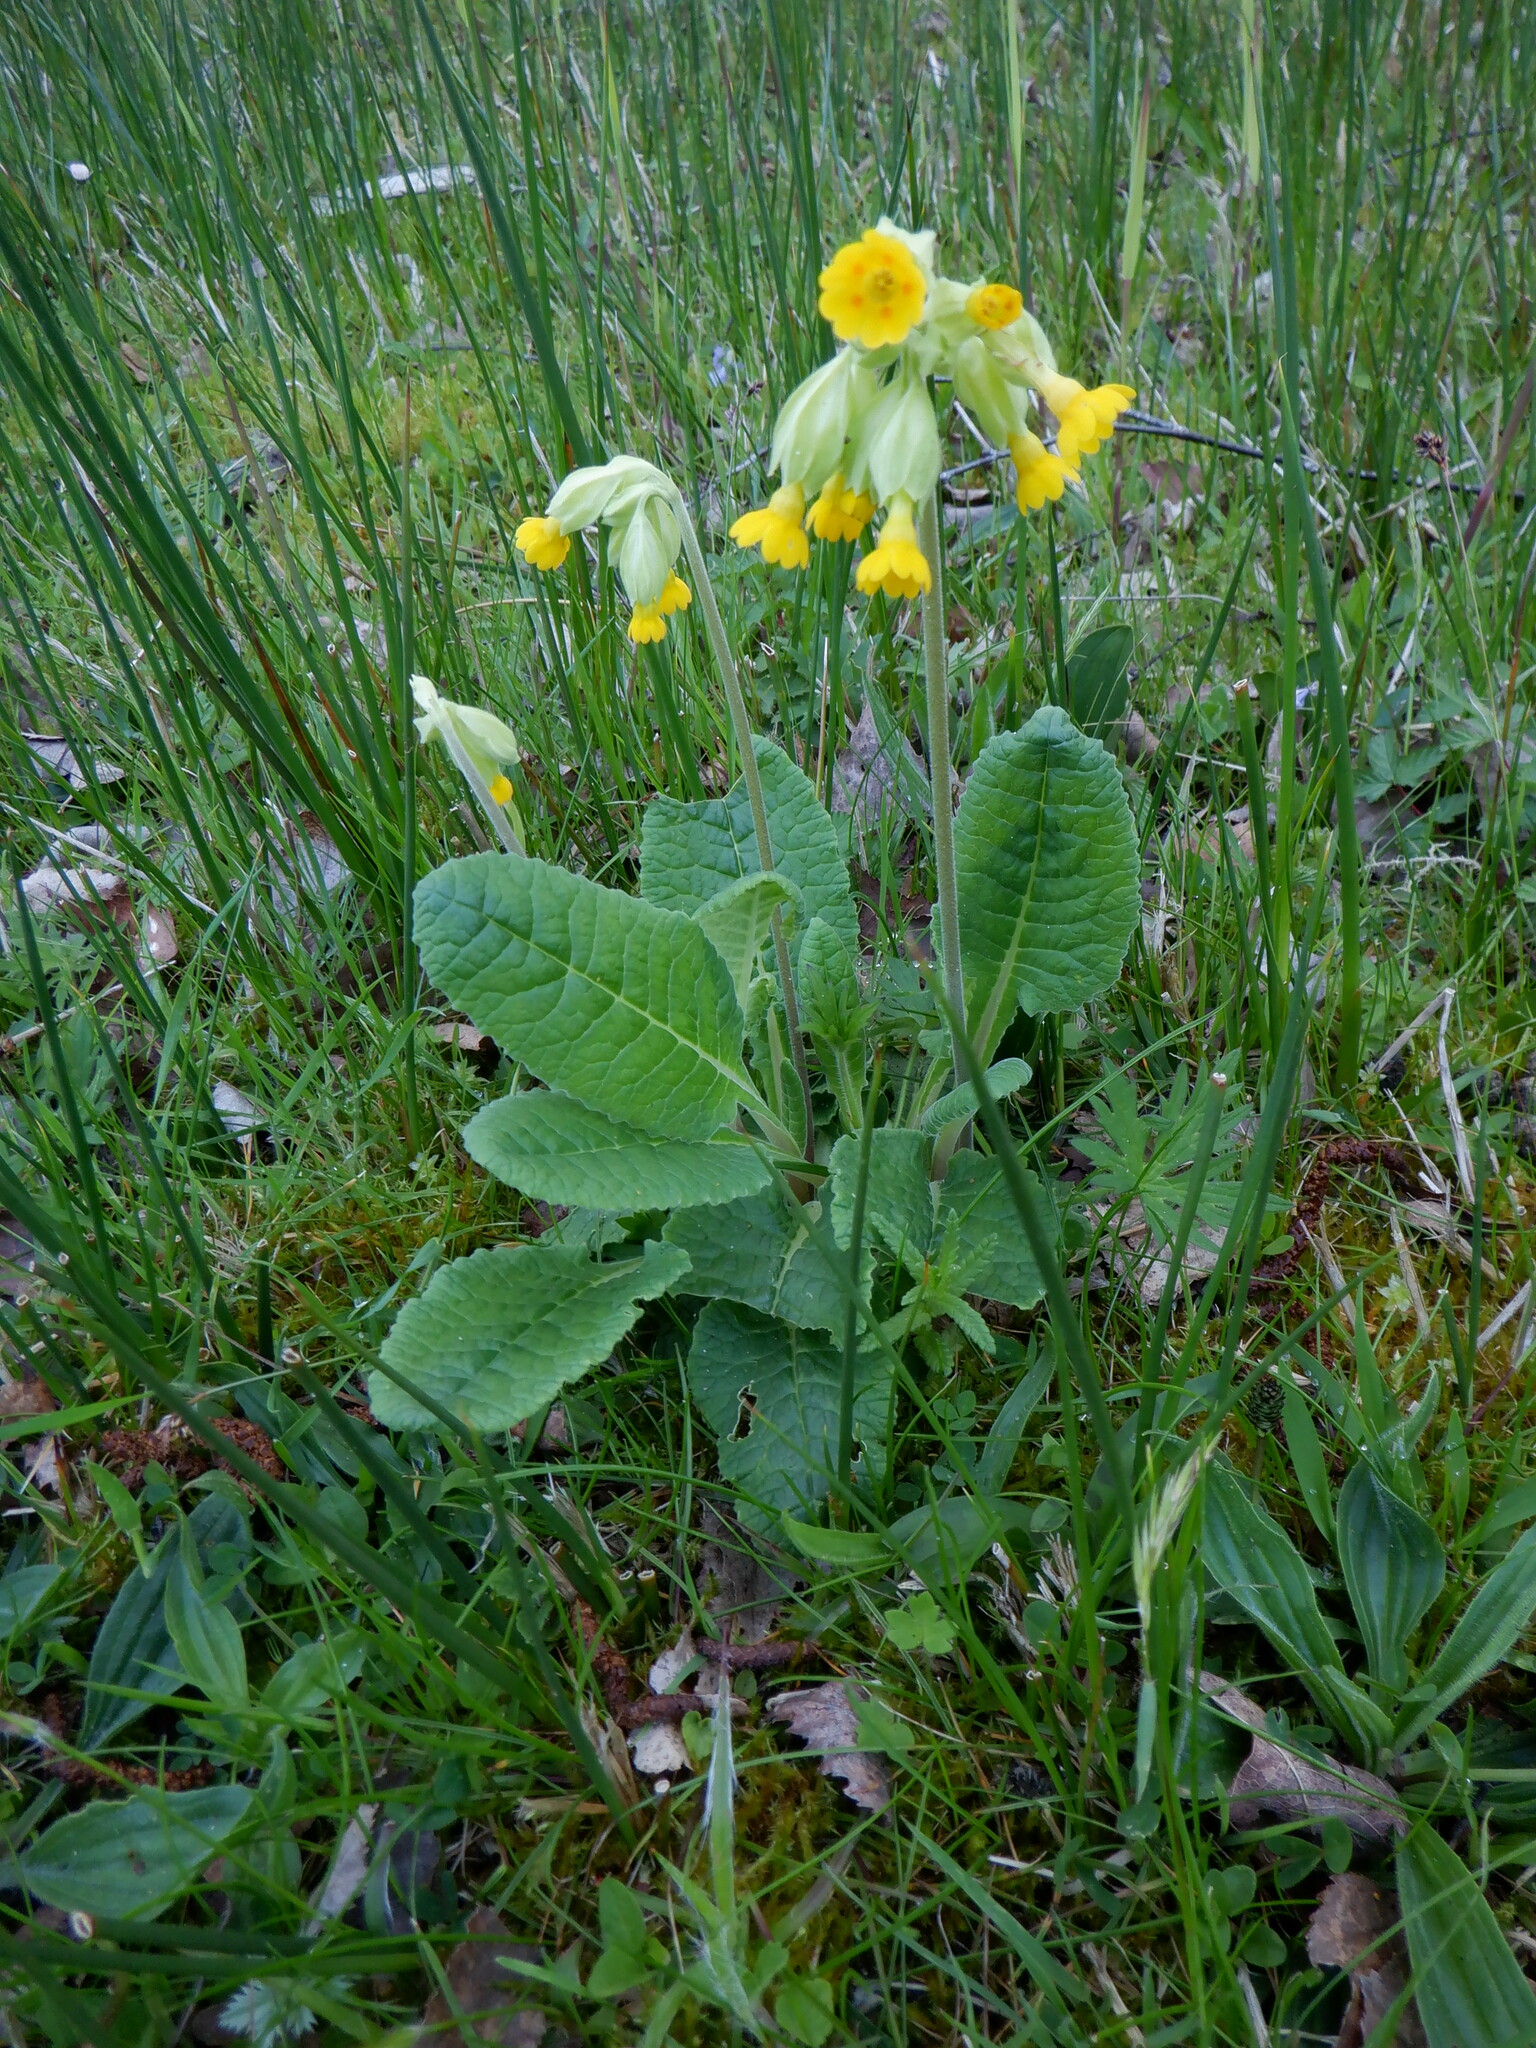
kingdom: Plantae
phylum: Tracheophyta
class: Magnoliopsida
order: Ericales
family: Primulaceae
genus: Primula
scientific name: Primula veris
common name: Cowslip
